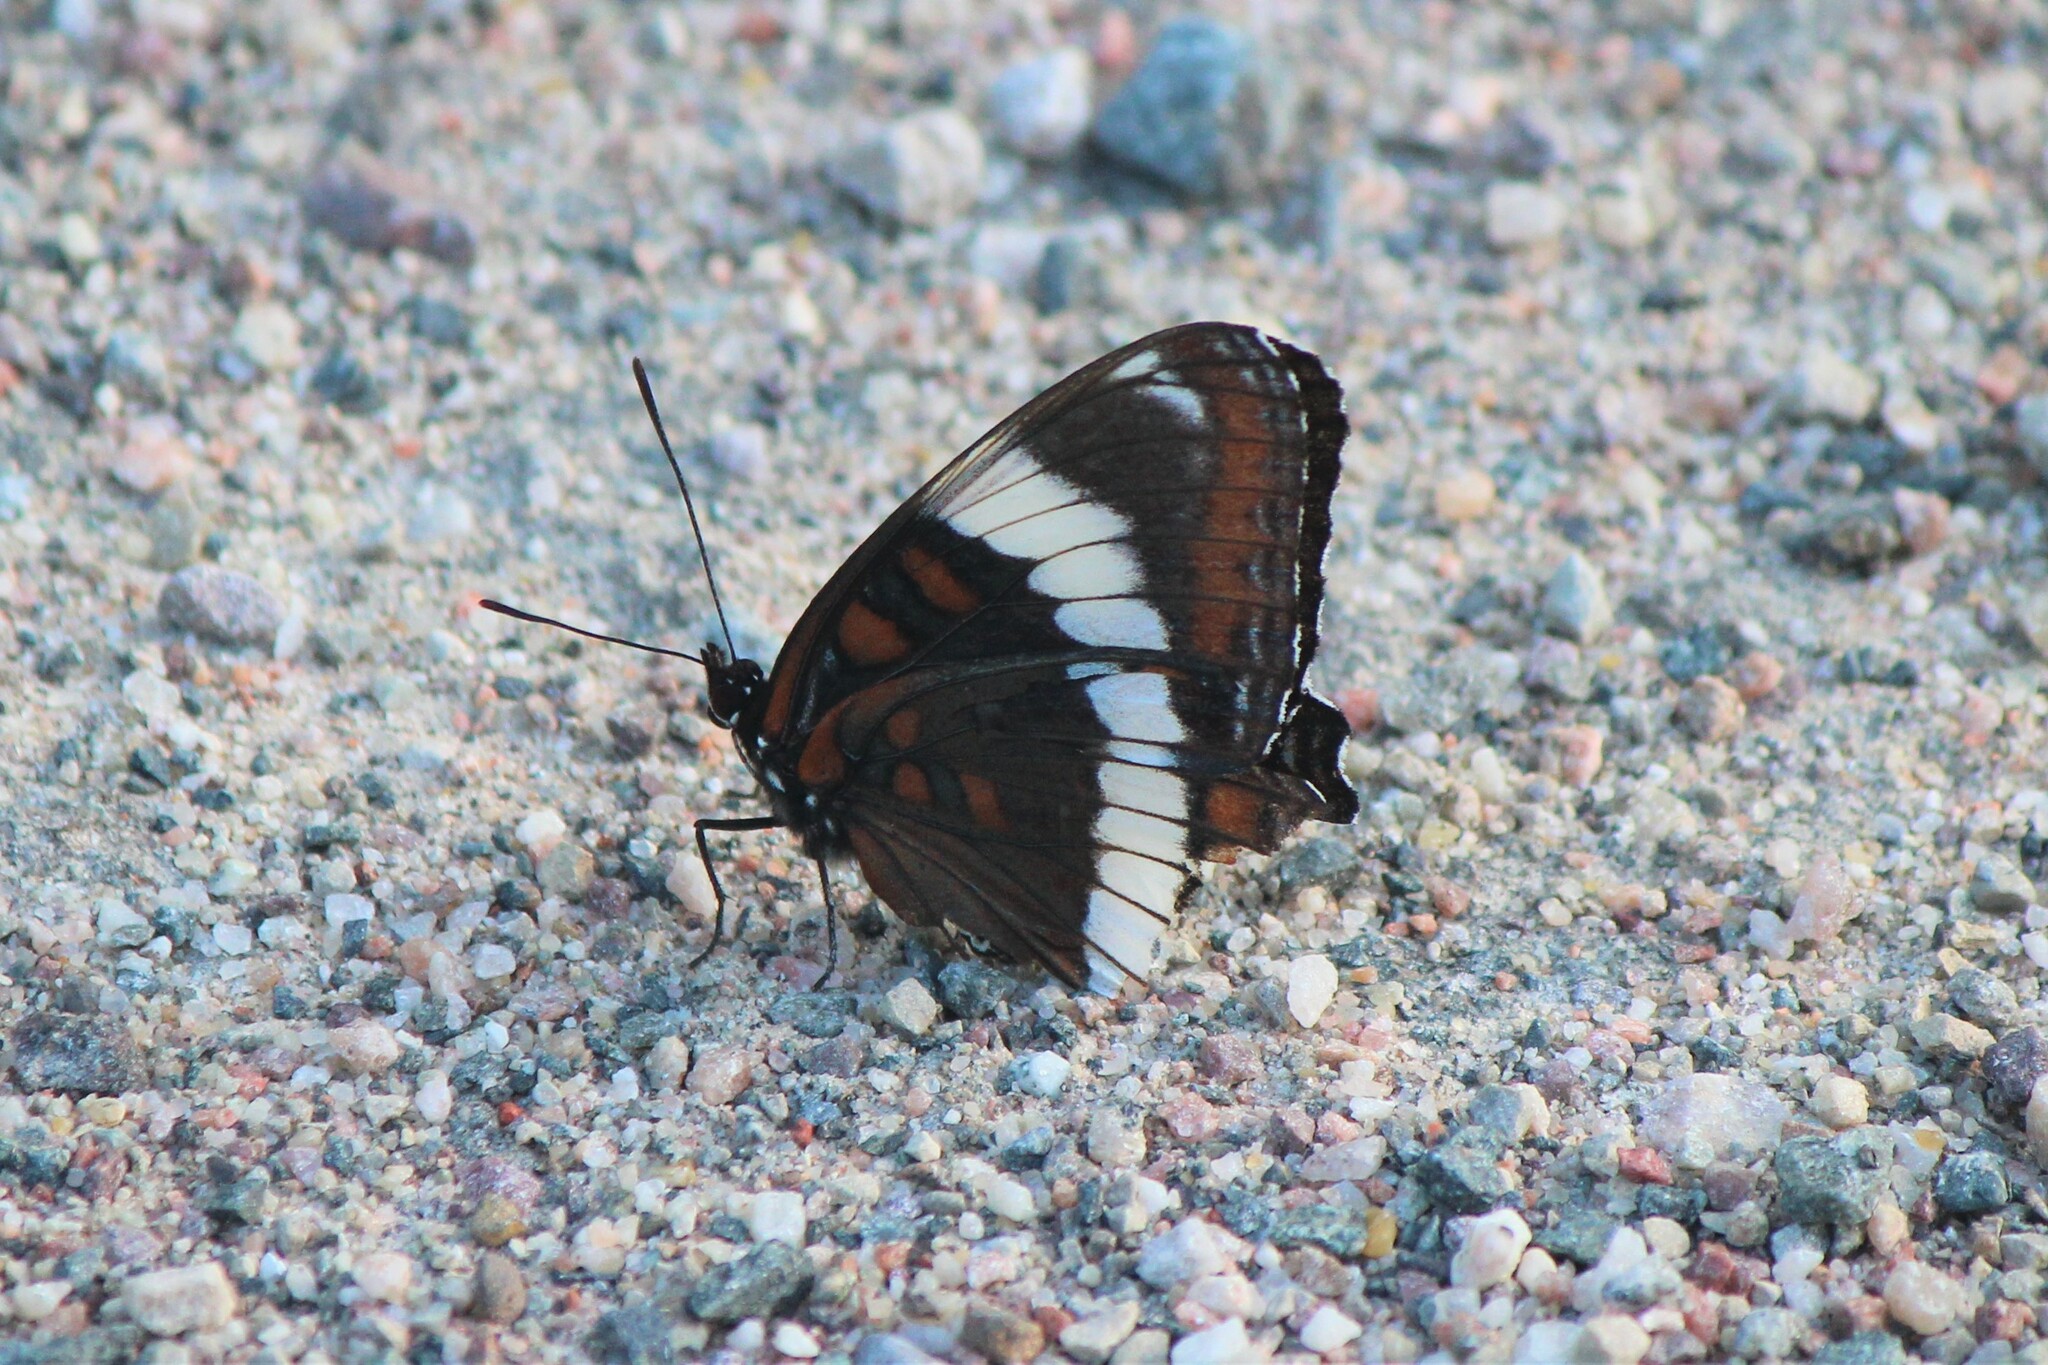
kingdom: Animalia
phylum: Arthropoda
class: Insecta
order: Lepidoptera
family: Nymphalidae
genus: Limenitis
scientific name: Limenitis arthemis
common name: Red-spotted admiral
